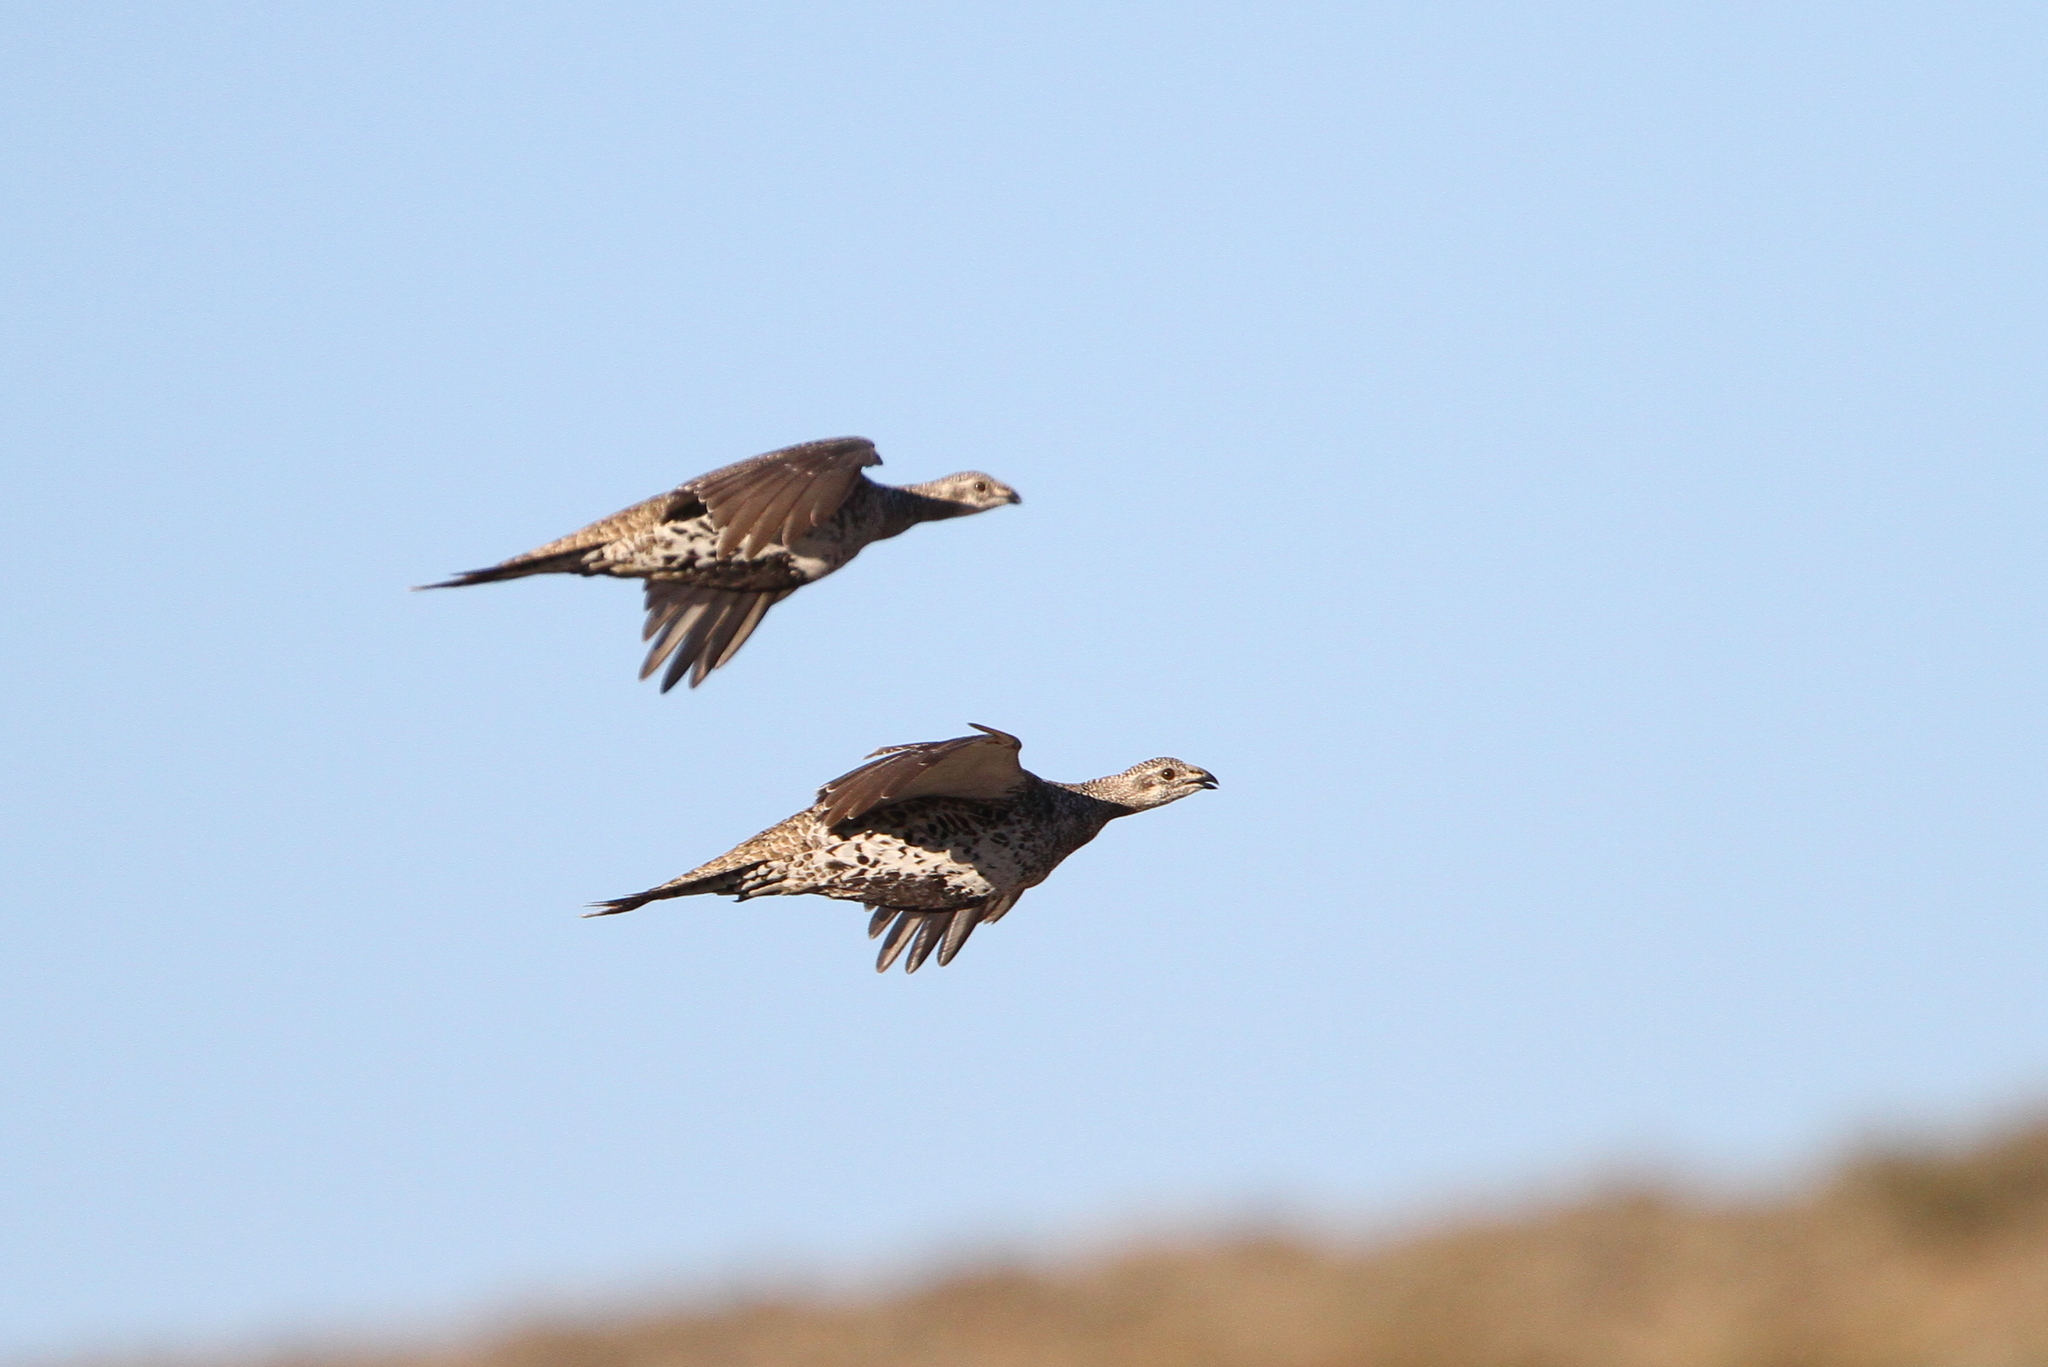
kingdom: Animalia
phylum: Chordata
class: Aves
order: Galliformes
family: Phasianidae
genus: Centrocercus
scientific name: Centrocercus urophasianus
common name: Sage grouse
